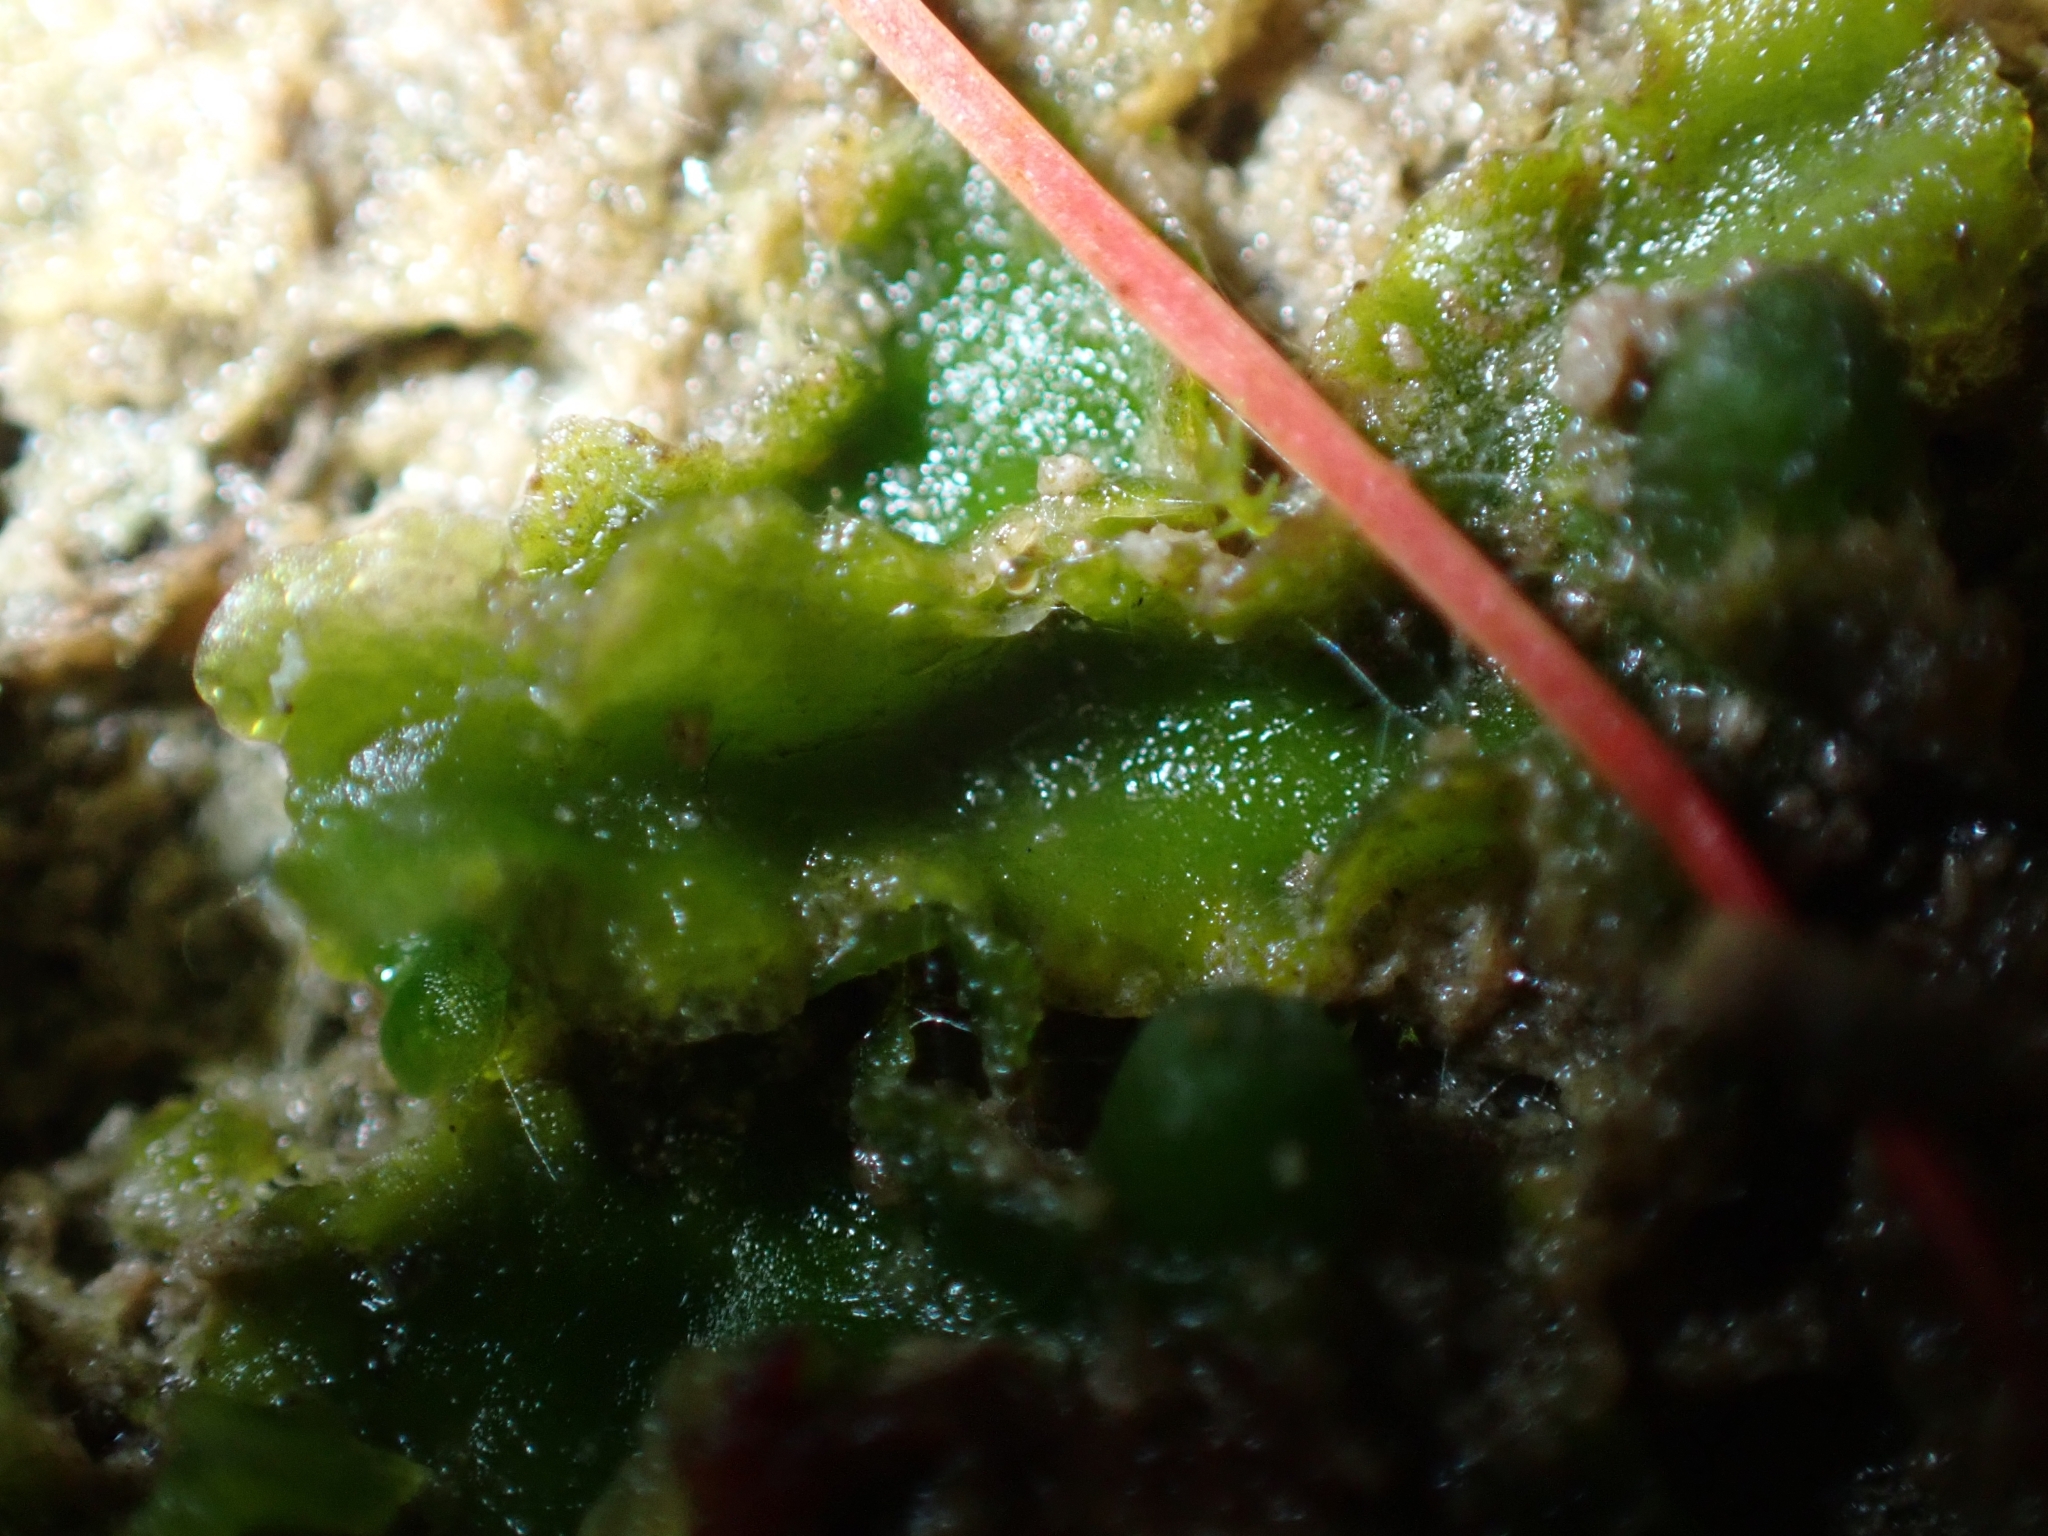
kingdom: Plantae
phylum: Marchantiophyta
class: Jungermanniopsida
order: Metzgeriales
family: Aneuraceae
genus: Aneura
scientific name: Aneura pinguis
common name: Common greasewort
